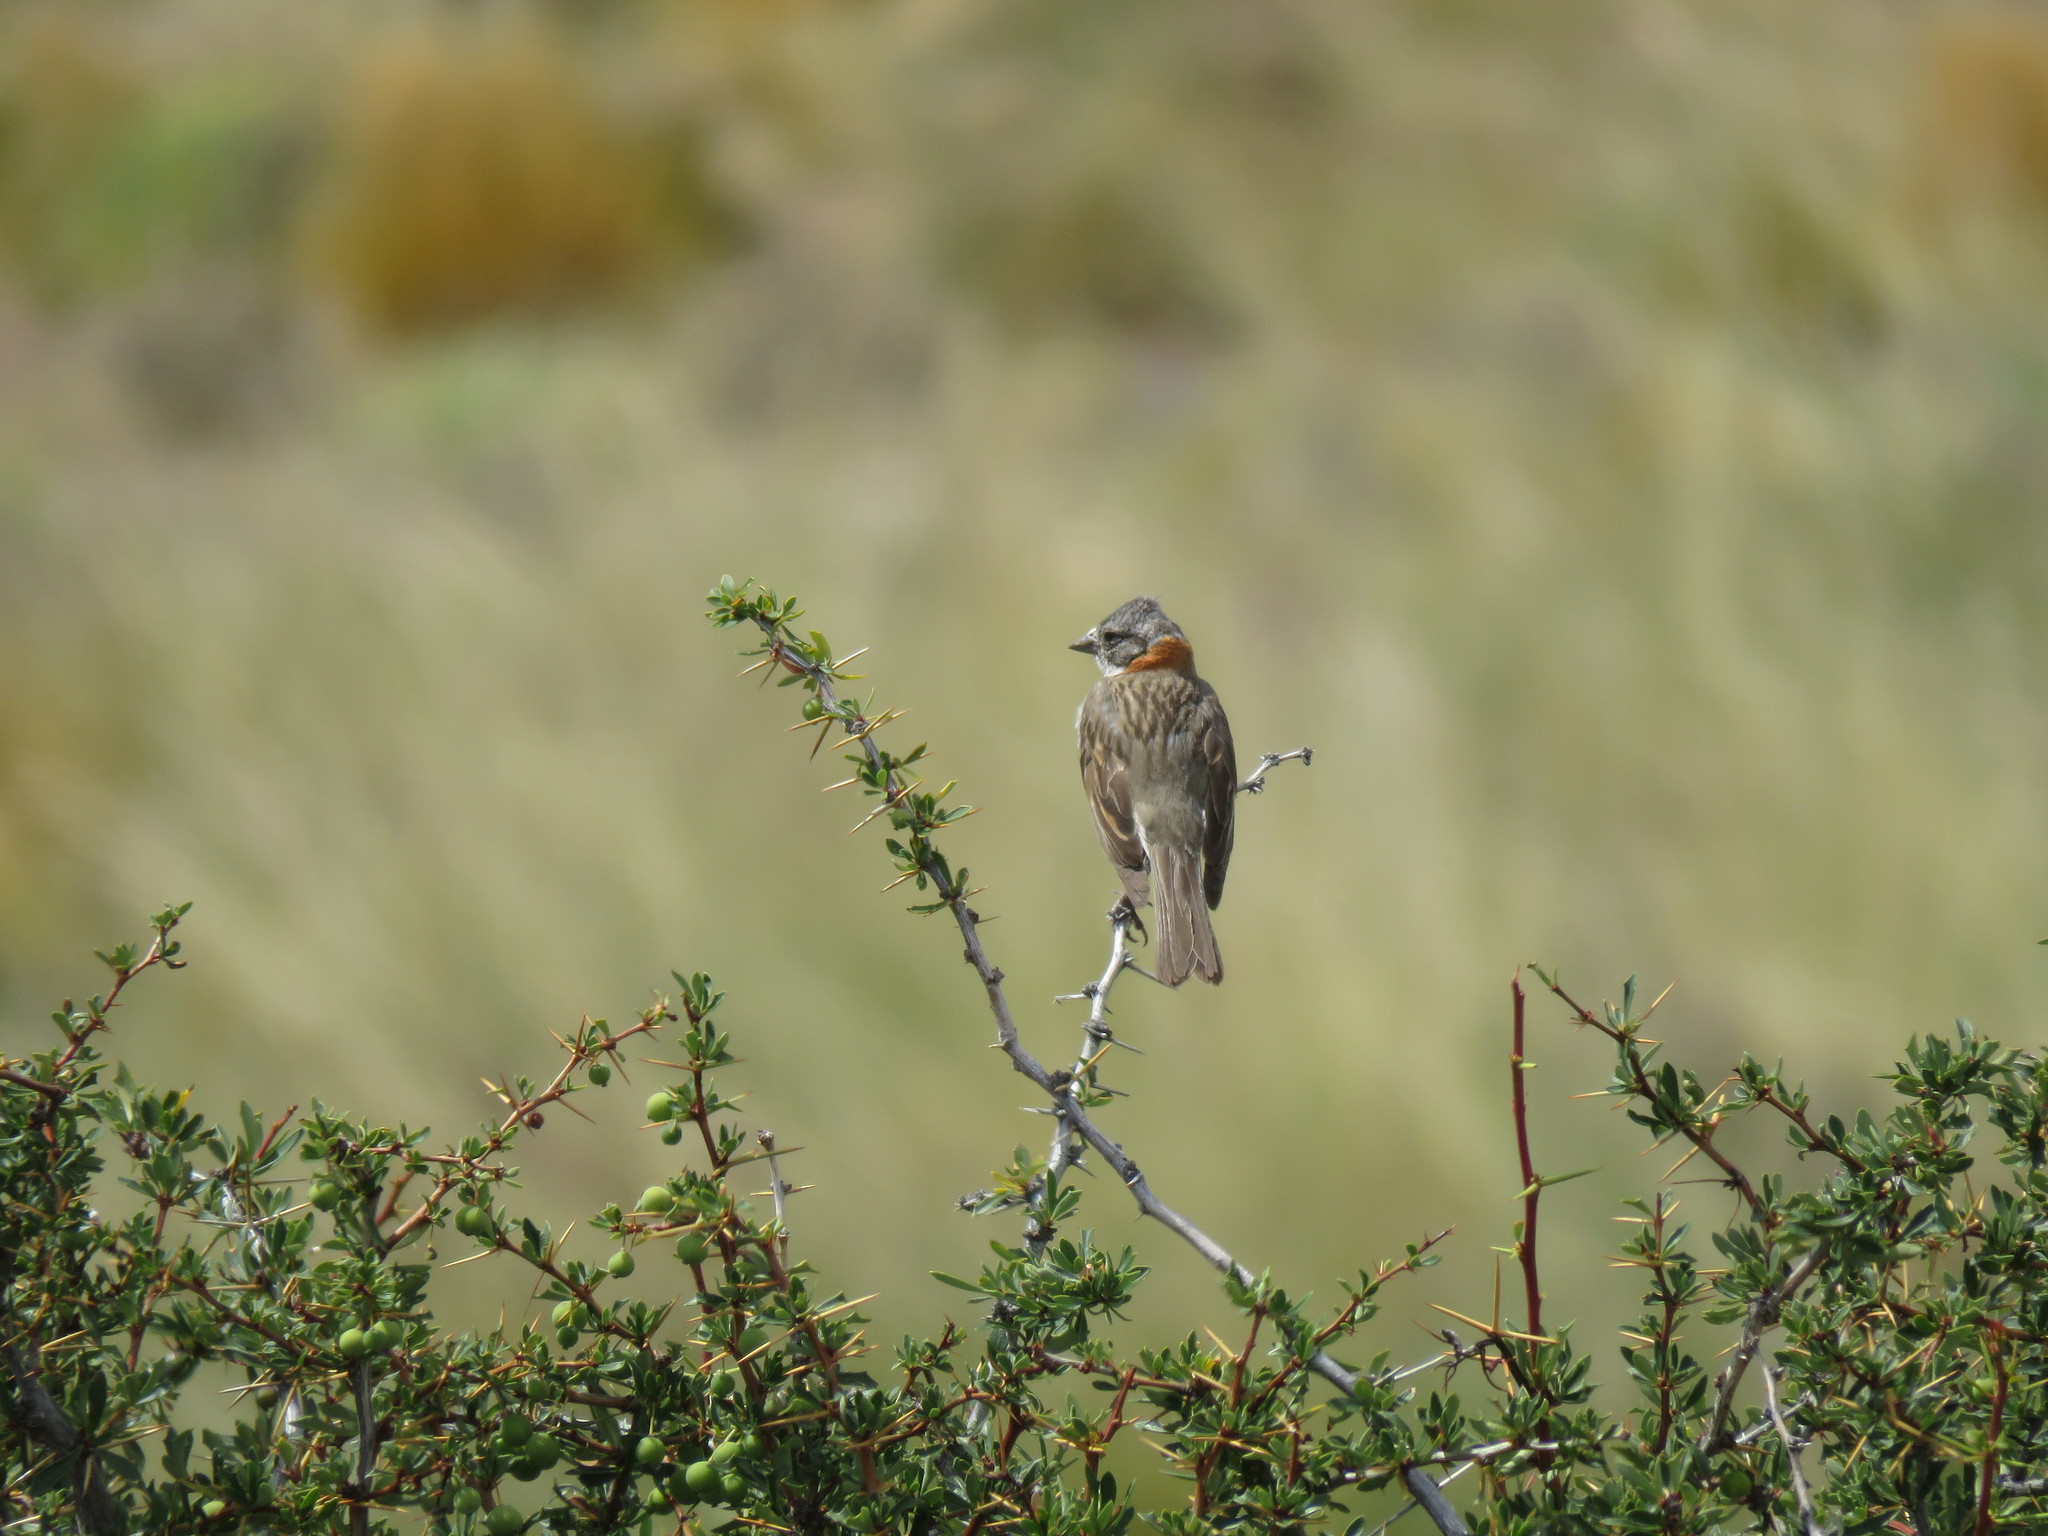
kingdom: Animalia
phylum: Chordata
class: Aves
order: Passeriformes
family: Passerellidae
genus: Zonotrichia
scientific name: Zonotrichia capensis
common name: Rufous-collared sparrow
